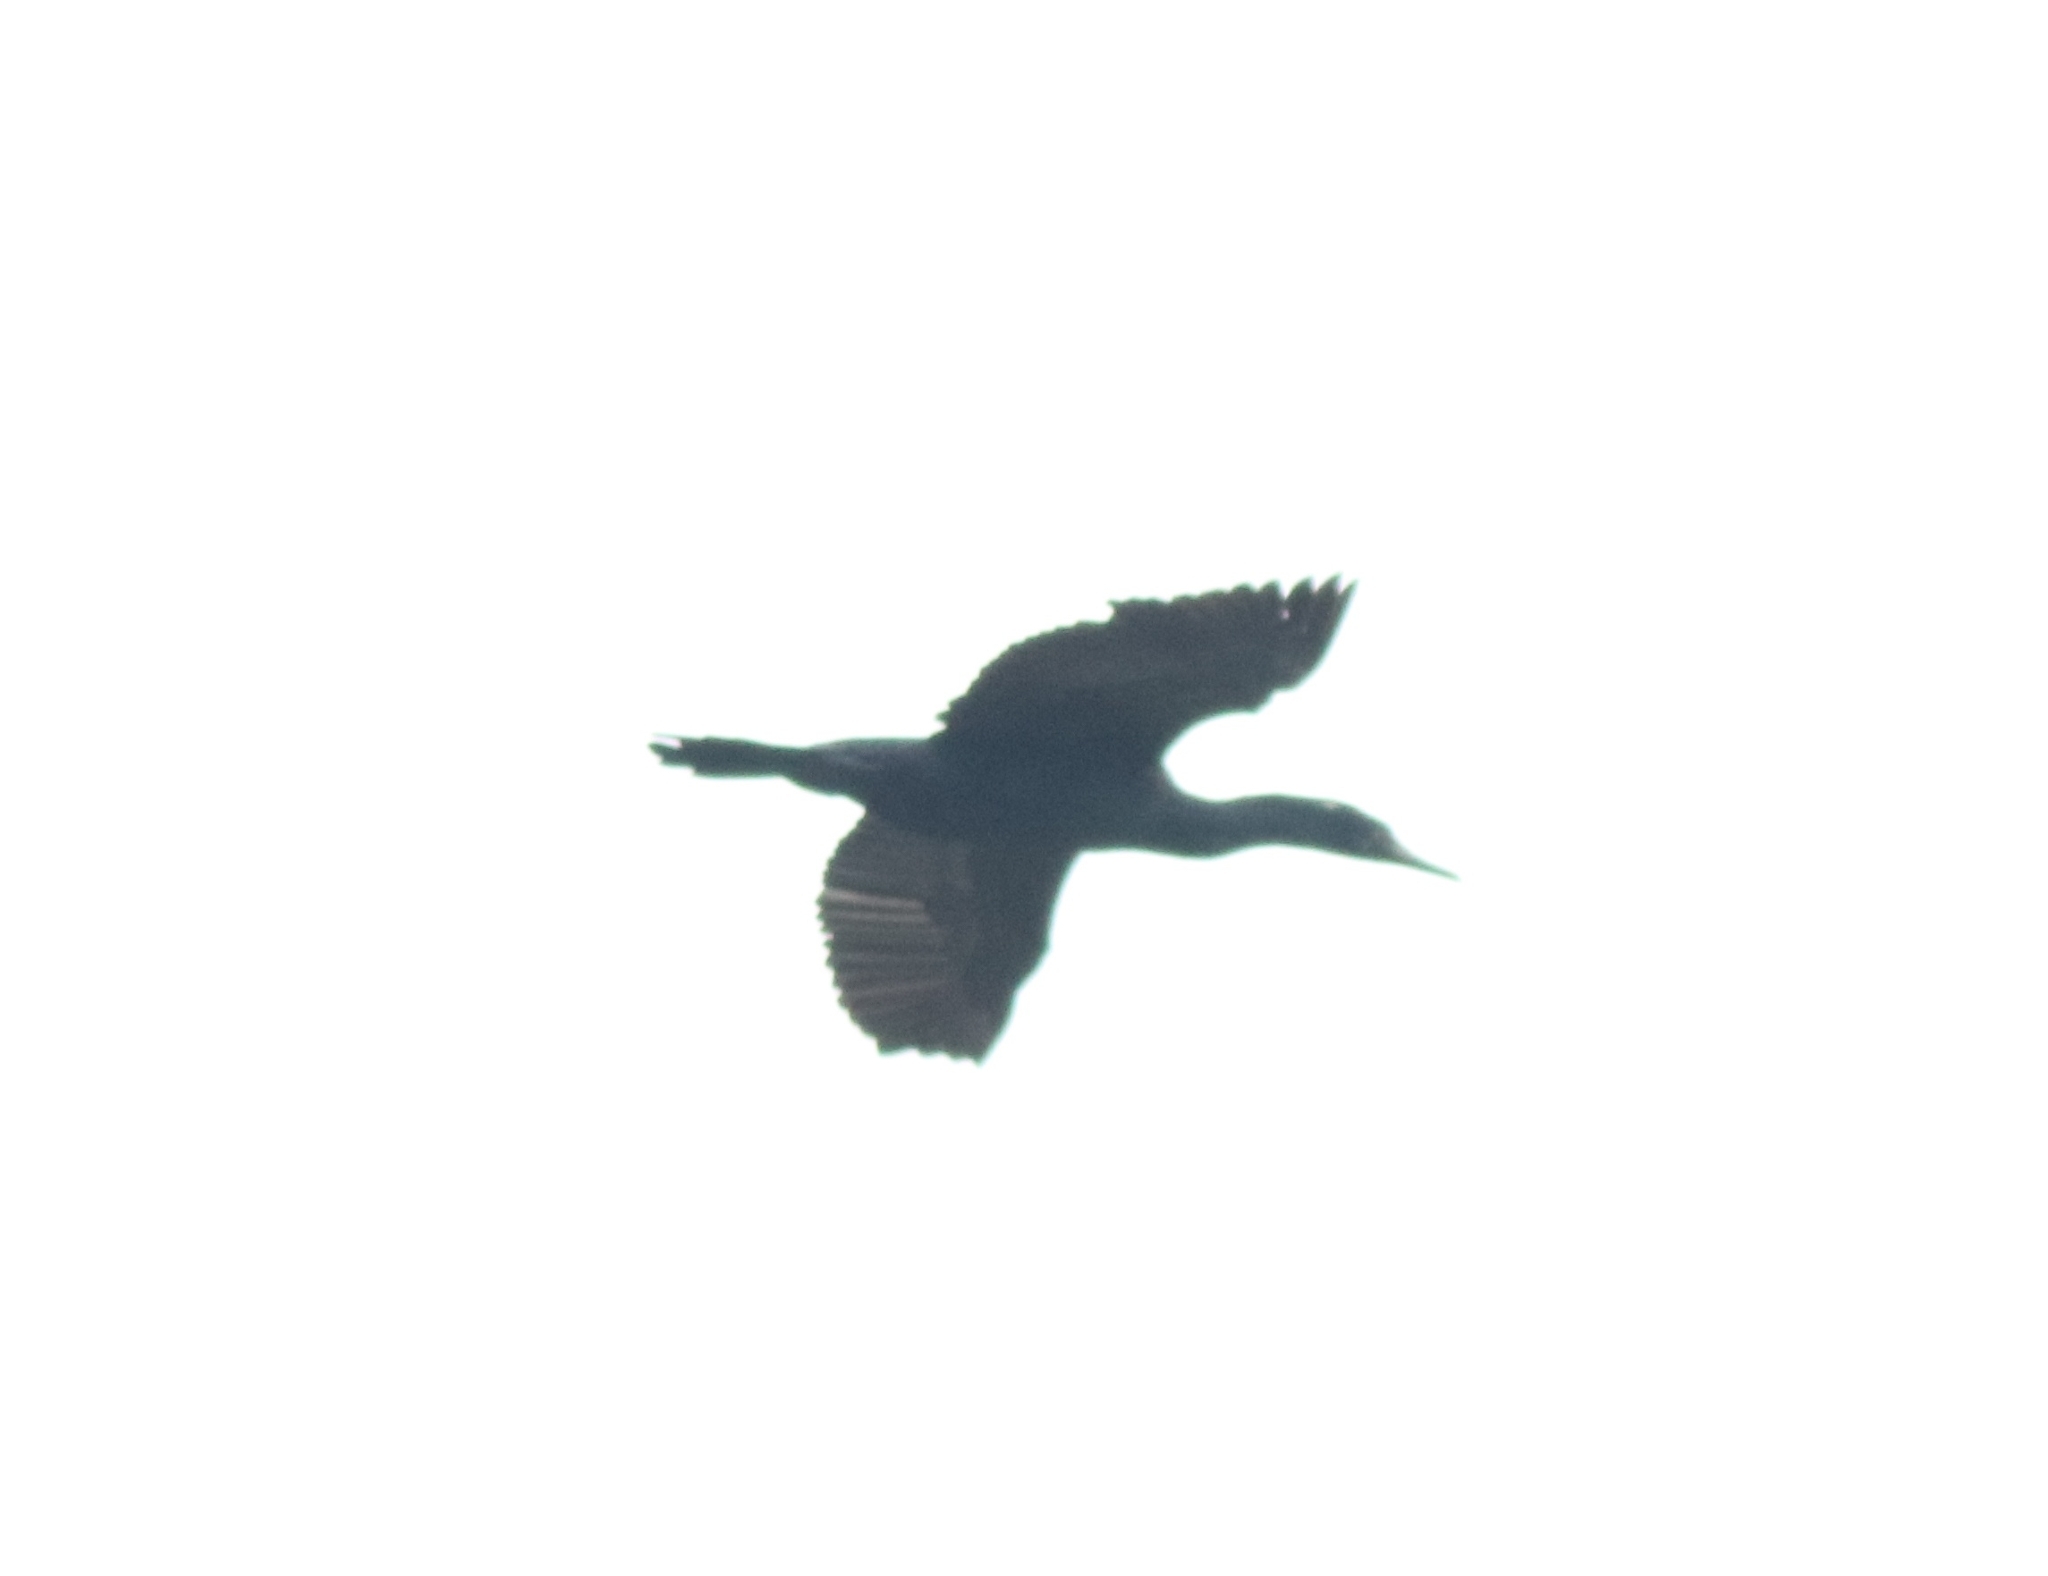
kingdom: Animalia
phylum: Chordata
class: Aves
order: Suliformes
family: Phalacrocoracidae
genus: Phalacrocorax
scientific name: Phalacrocorax fuscicollis
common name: Indian cormorant
